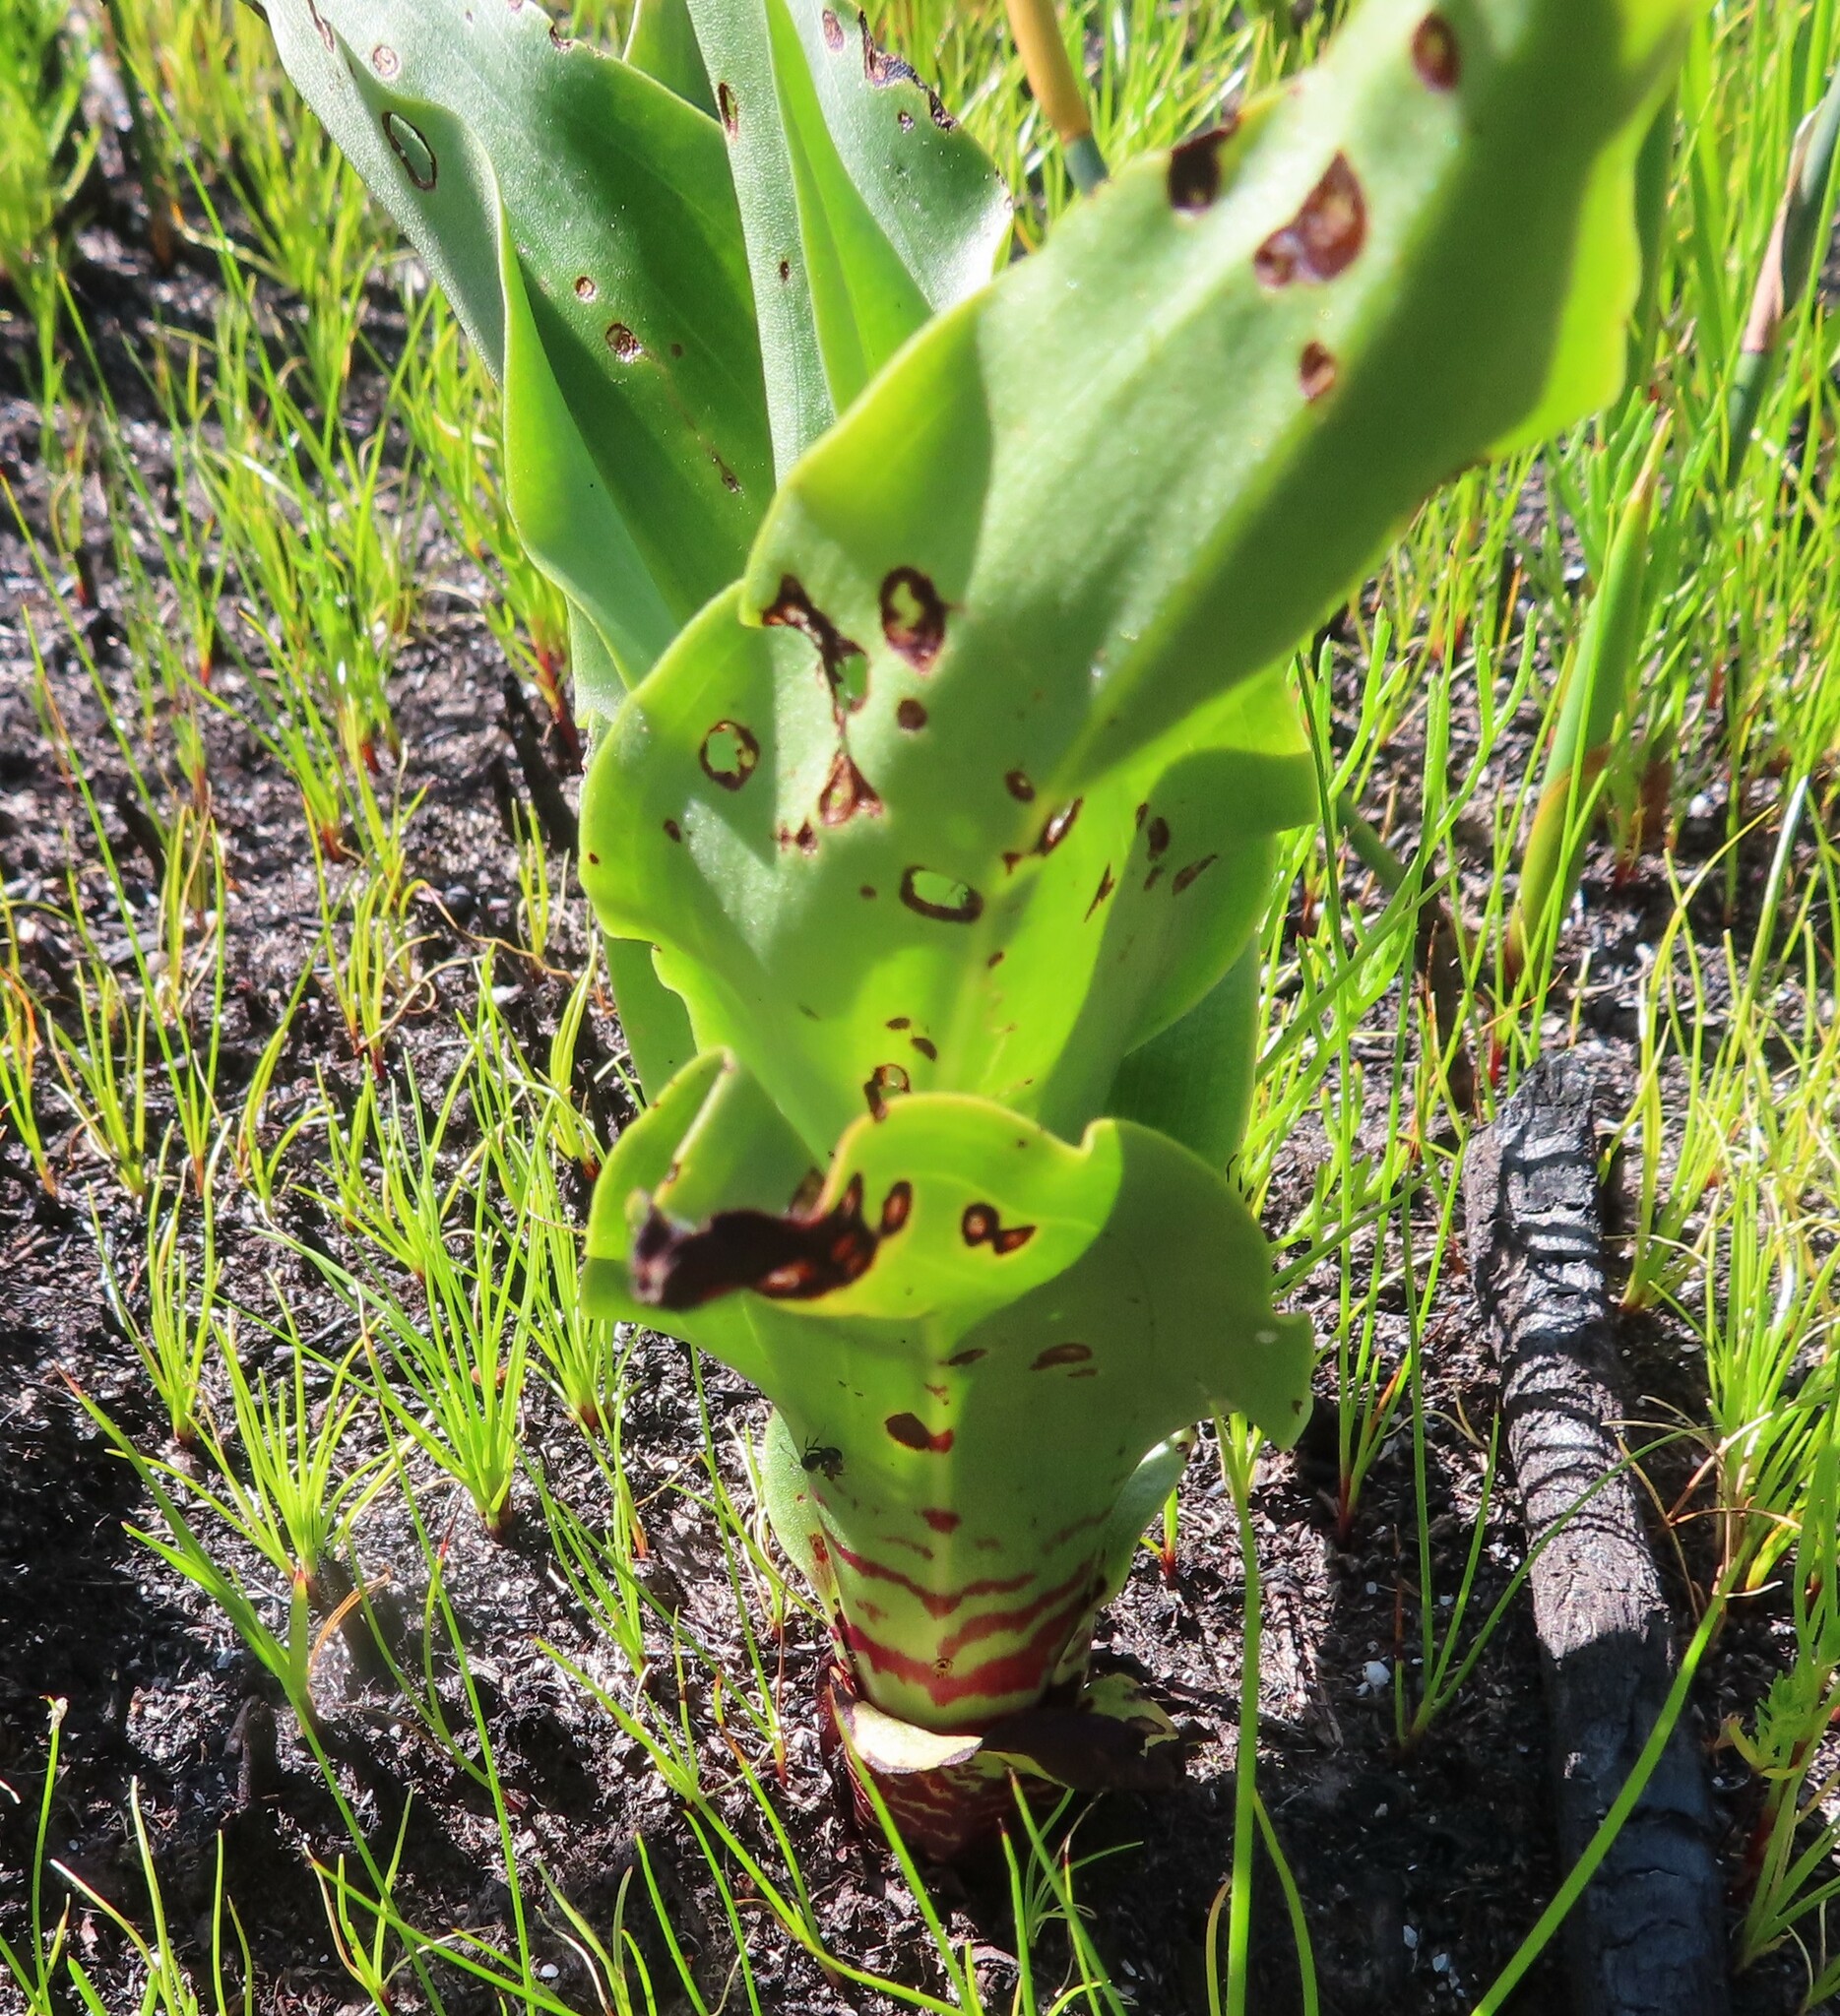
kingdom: Plantae
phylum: Tracheophyta
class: Liliopsida
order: Asparagales
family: Orchidaceae
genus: Disa
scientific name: Disa cornuta
